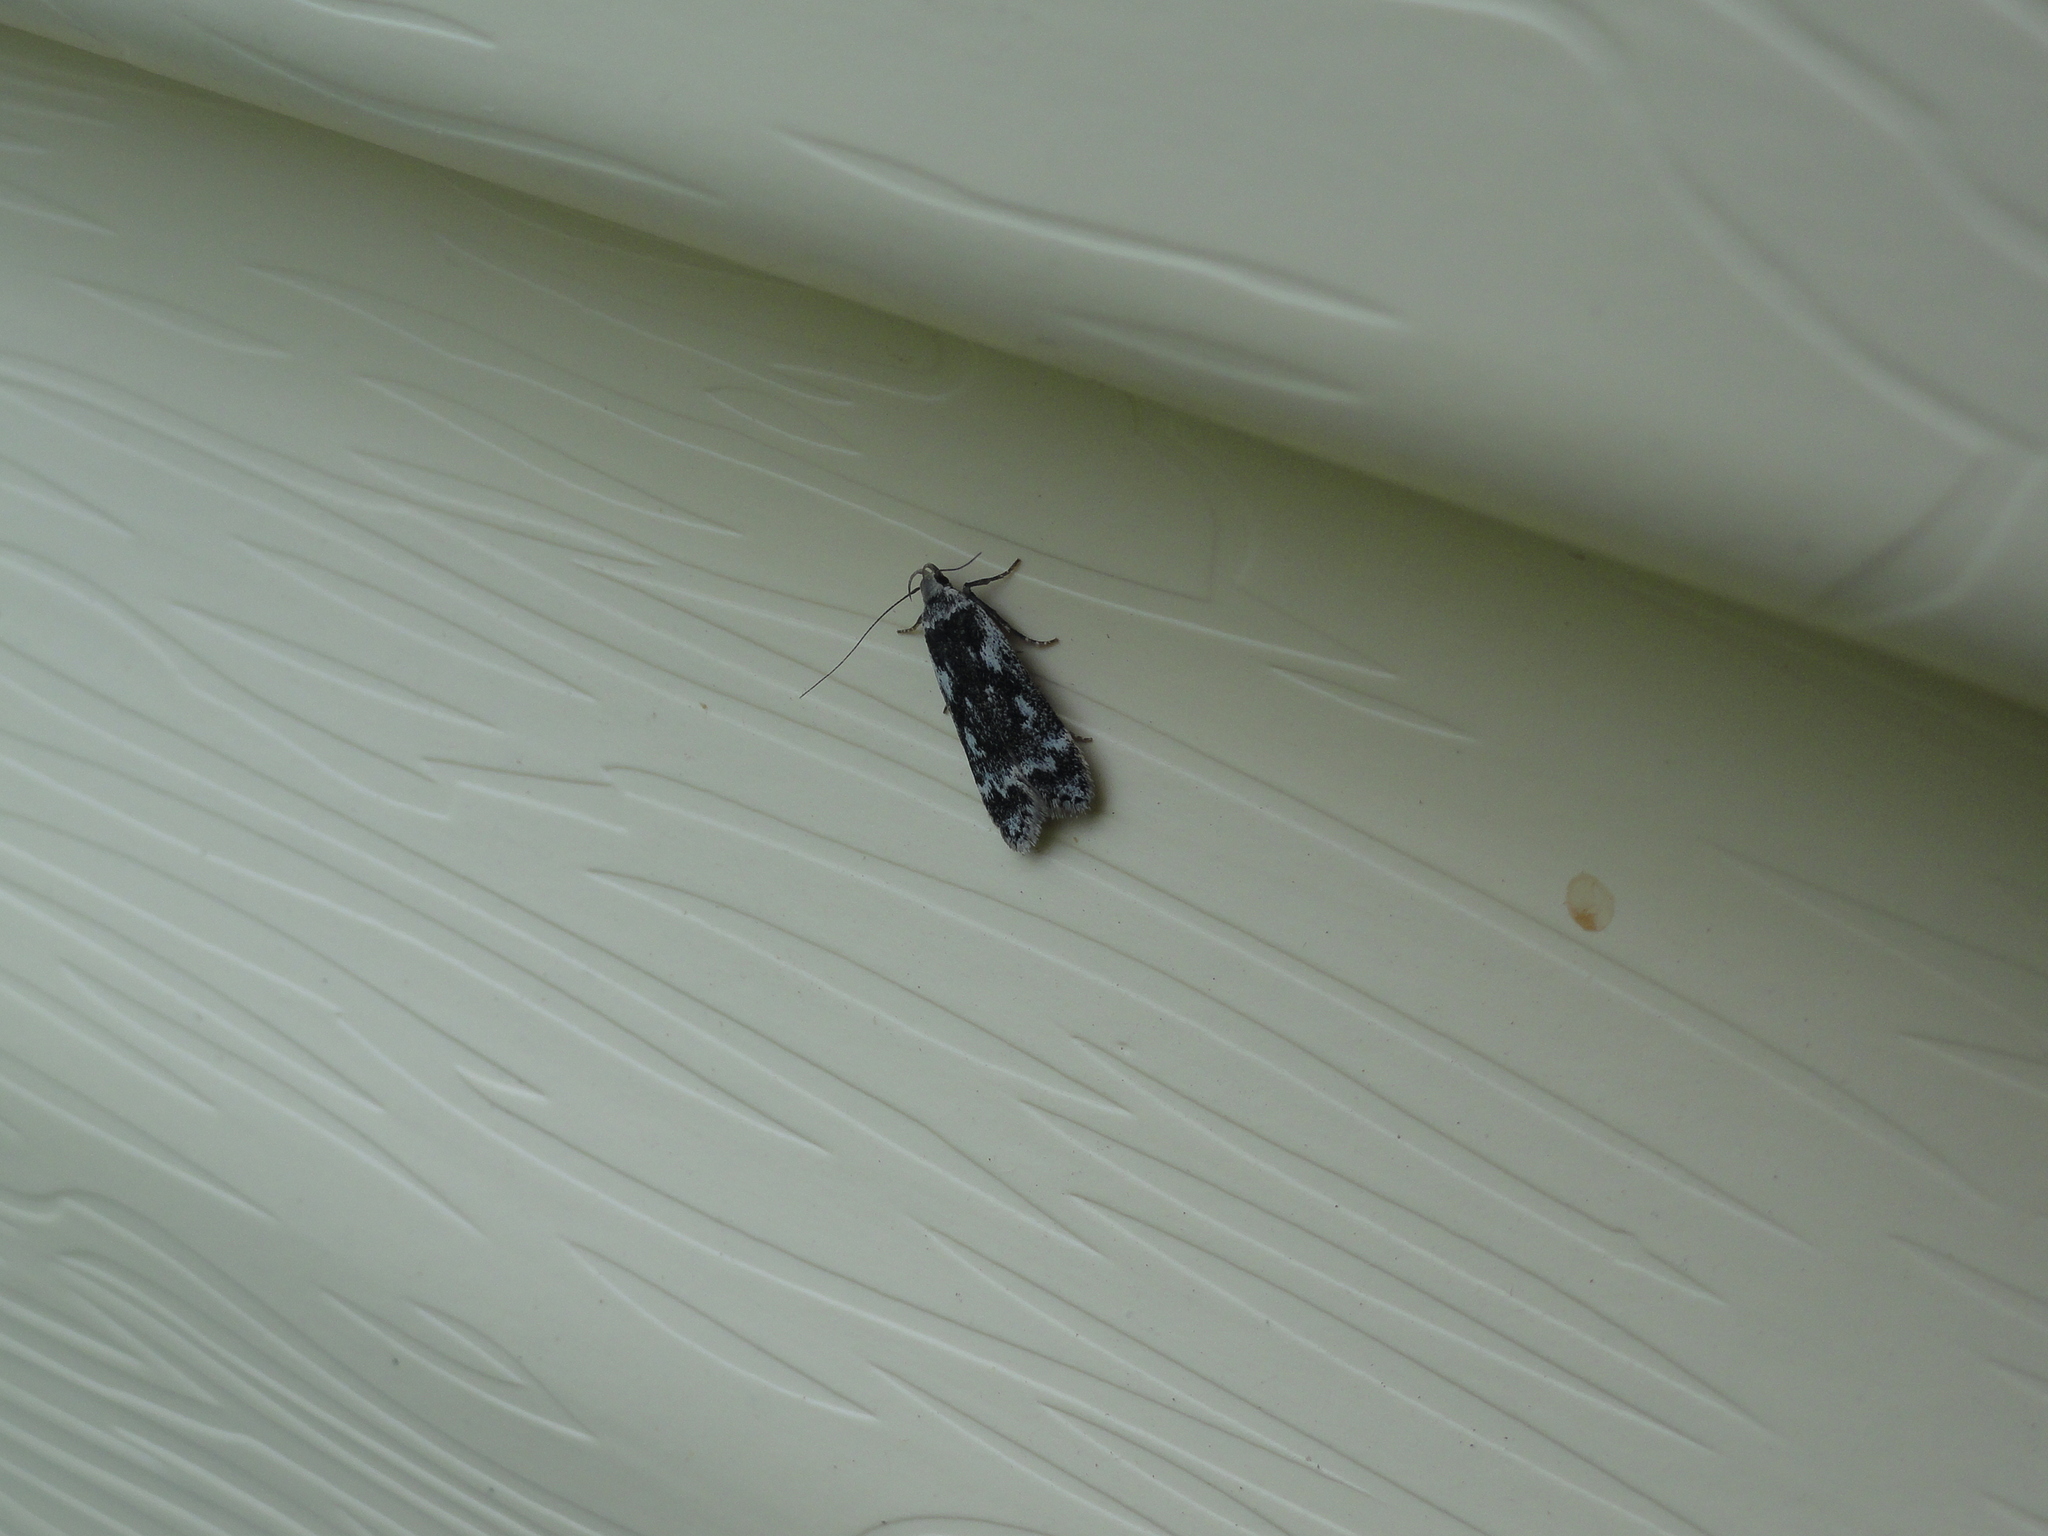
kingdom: Animalia
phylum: Arthropoda
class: Insecta
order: Lepidoptera
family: Gelechiidae
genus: Anacampsis
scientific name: Anacampsis blattariella
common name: Birch sober
